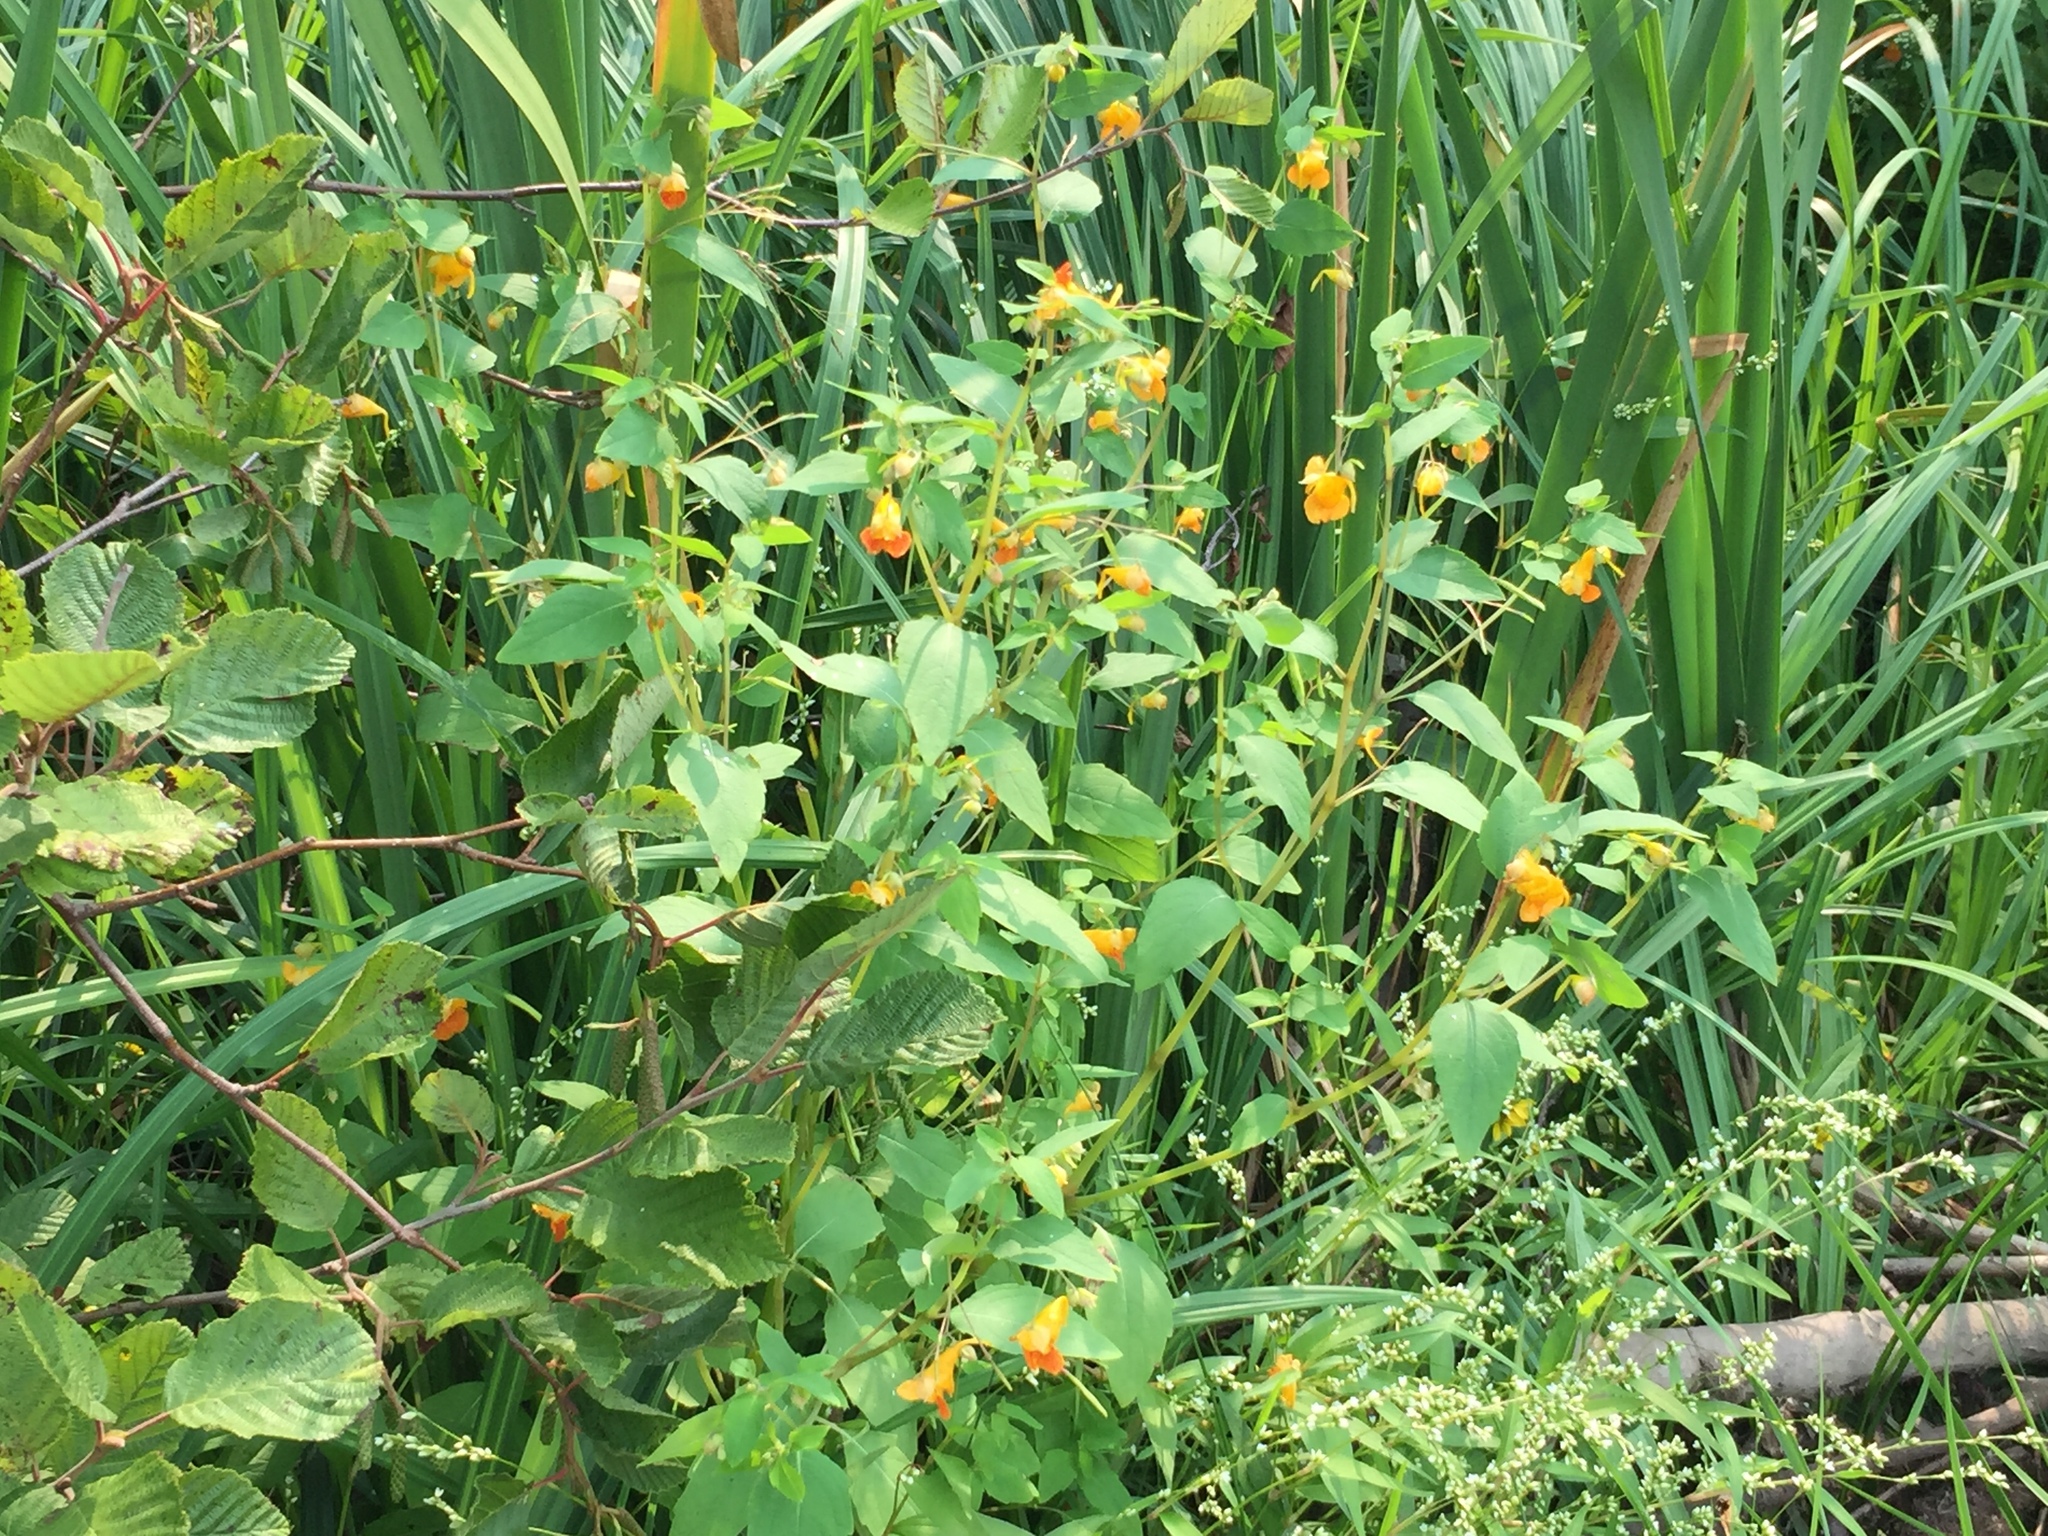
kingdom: Plantae
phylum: Tracheophyta
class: Magnoliopsida
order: Ericales
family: Balsaminaceae
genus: Impatiens
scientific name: Impatiens capensis
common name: Orange balsam
